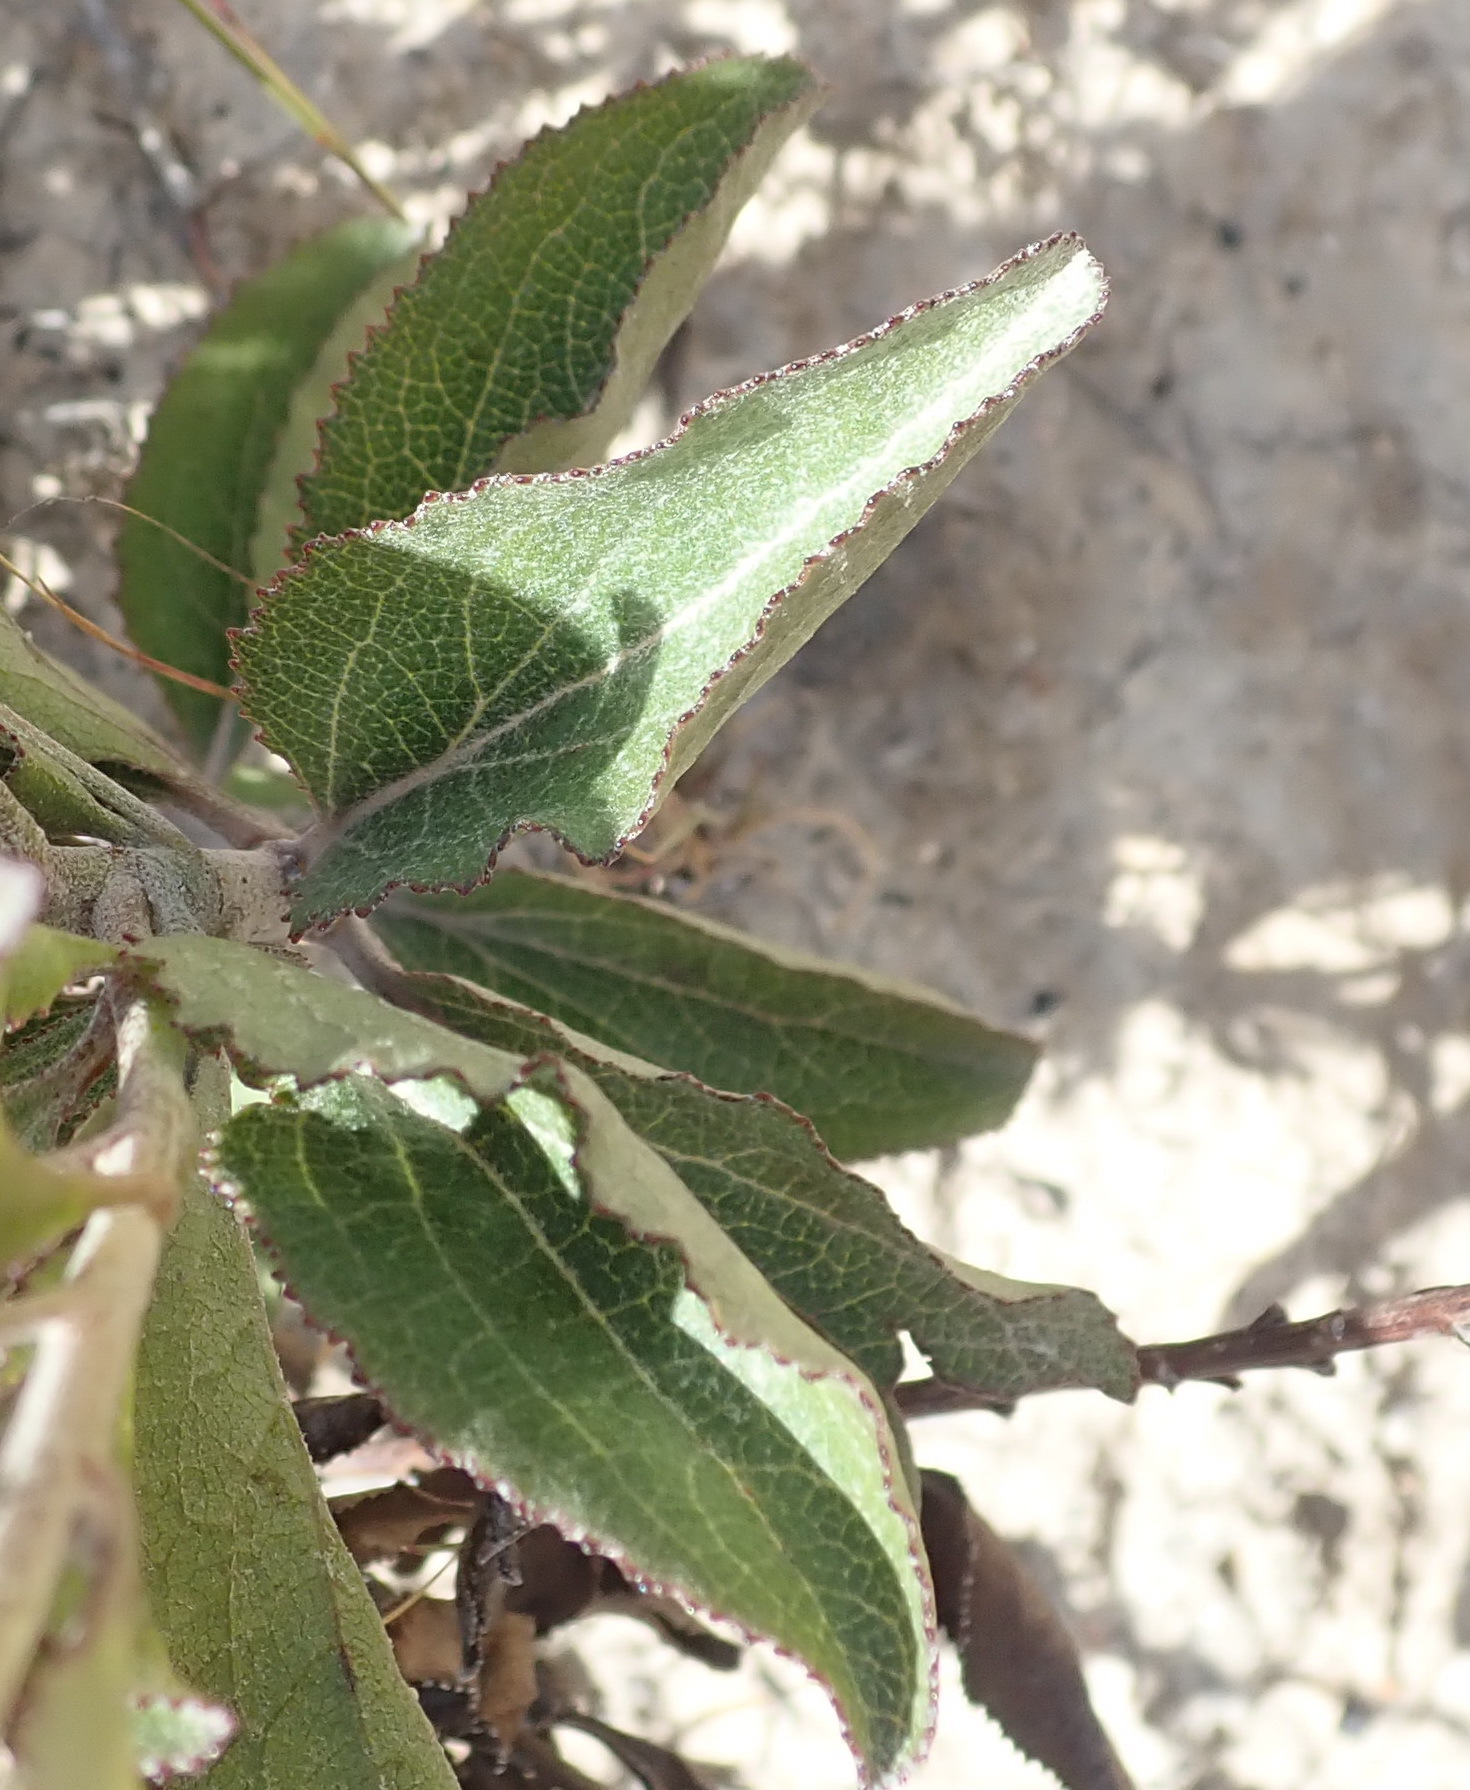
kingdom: Plantae
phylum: Tracheophyta
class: Magnoliopsida
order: Asterales
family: Asteraceae
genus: Senecio
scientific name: Senecio crenatus
